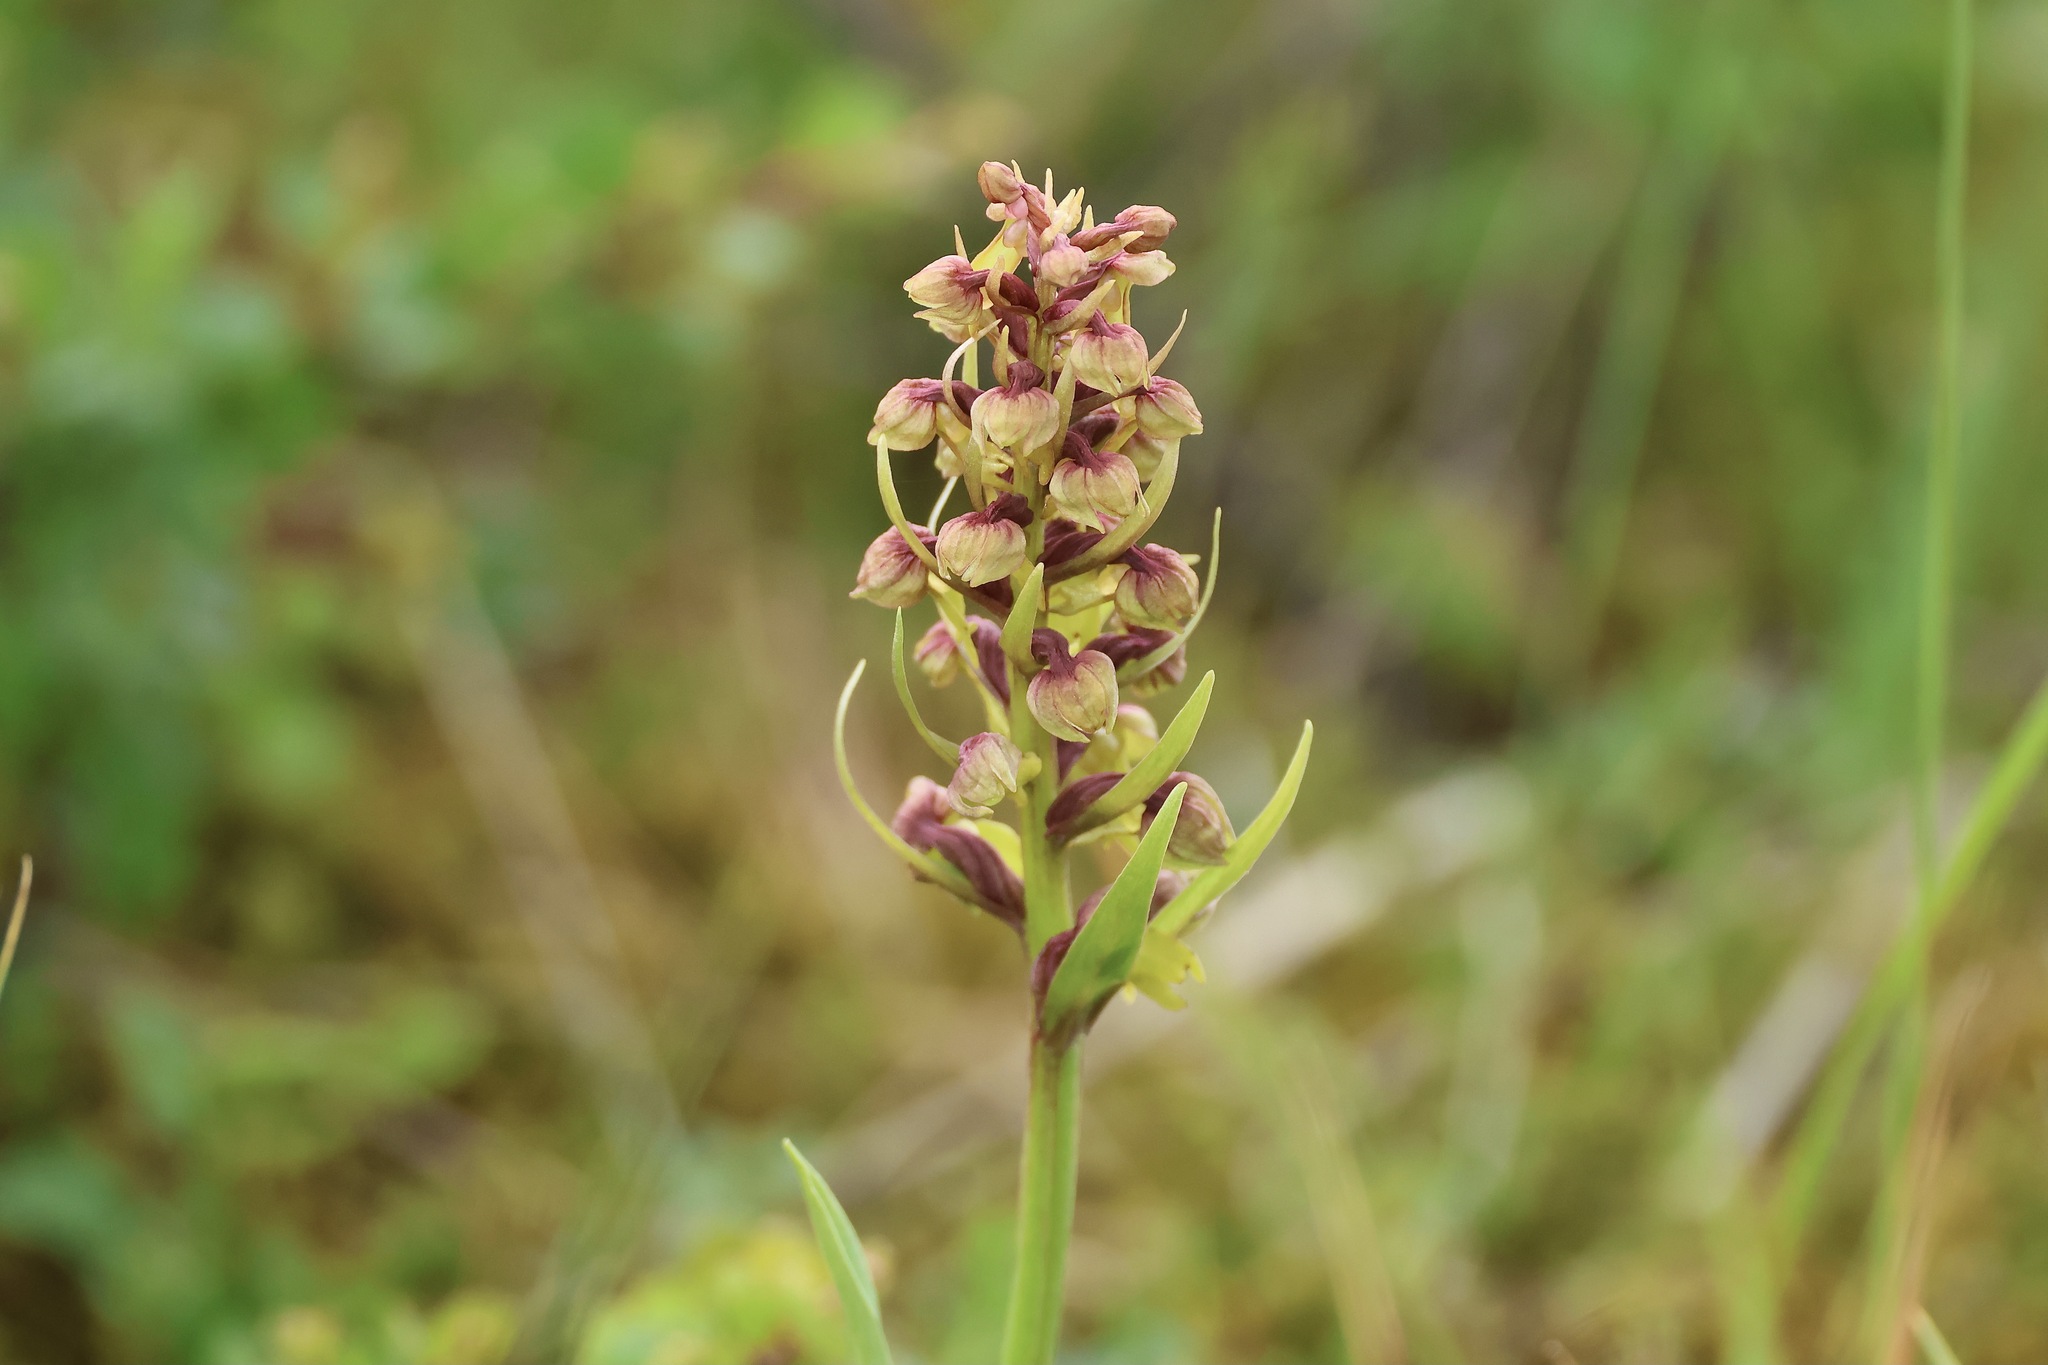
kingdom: Plantae
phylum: Tracheophyta
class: Liliopsida
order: Asparagales
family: Orchidaceae
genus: Dactylorhiza
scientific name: Dactylorhiza viridis
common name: Longbract frog orchid
